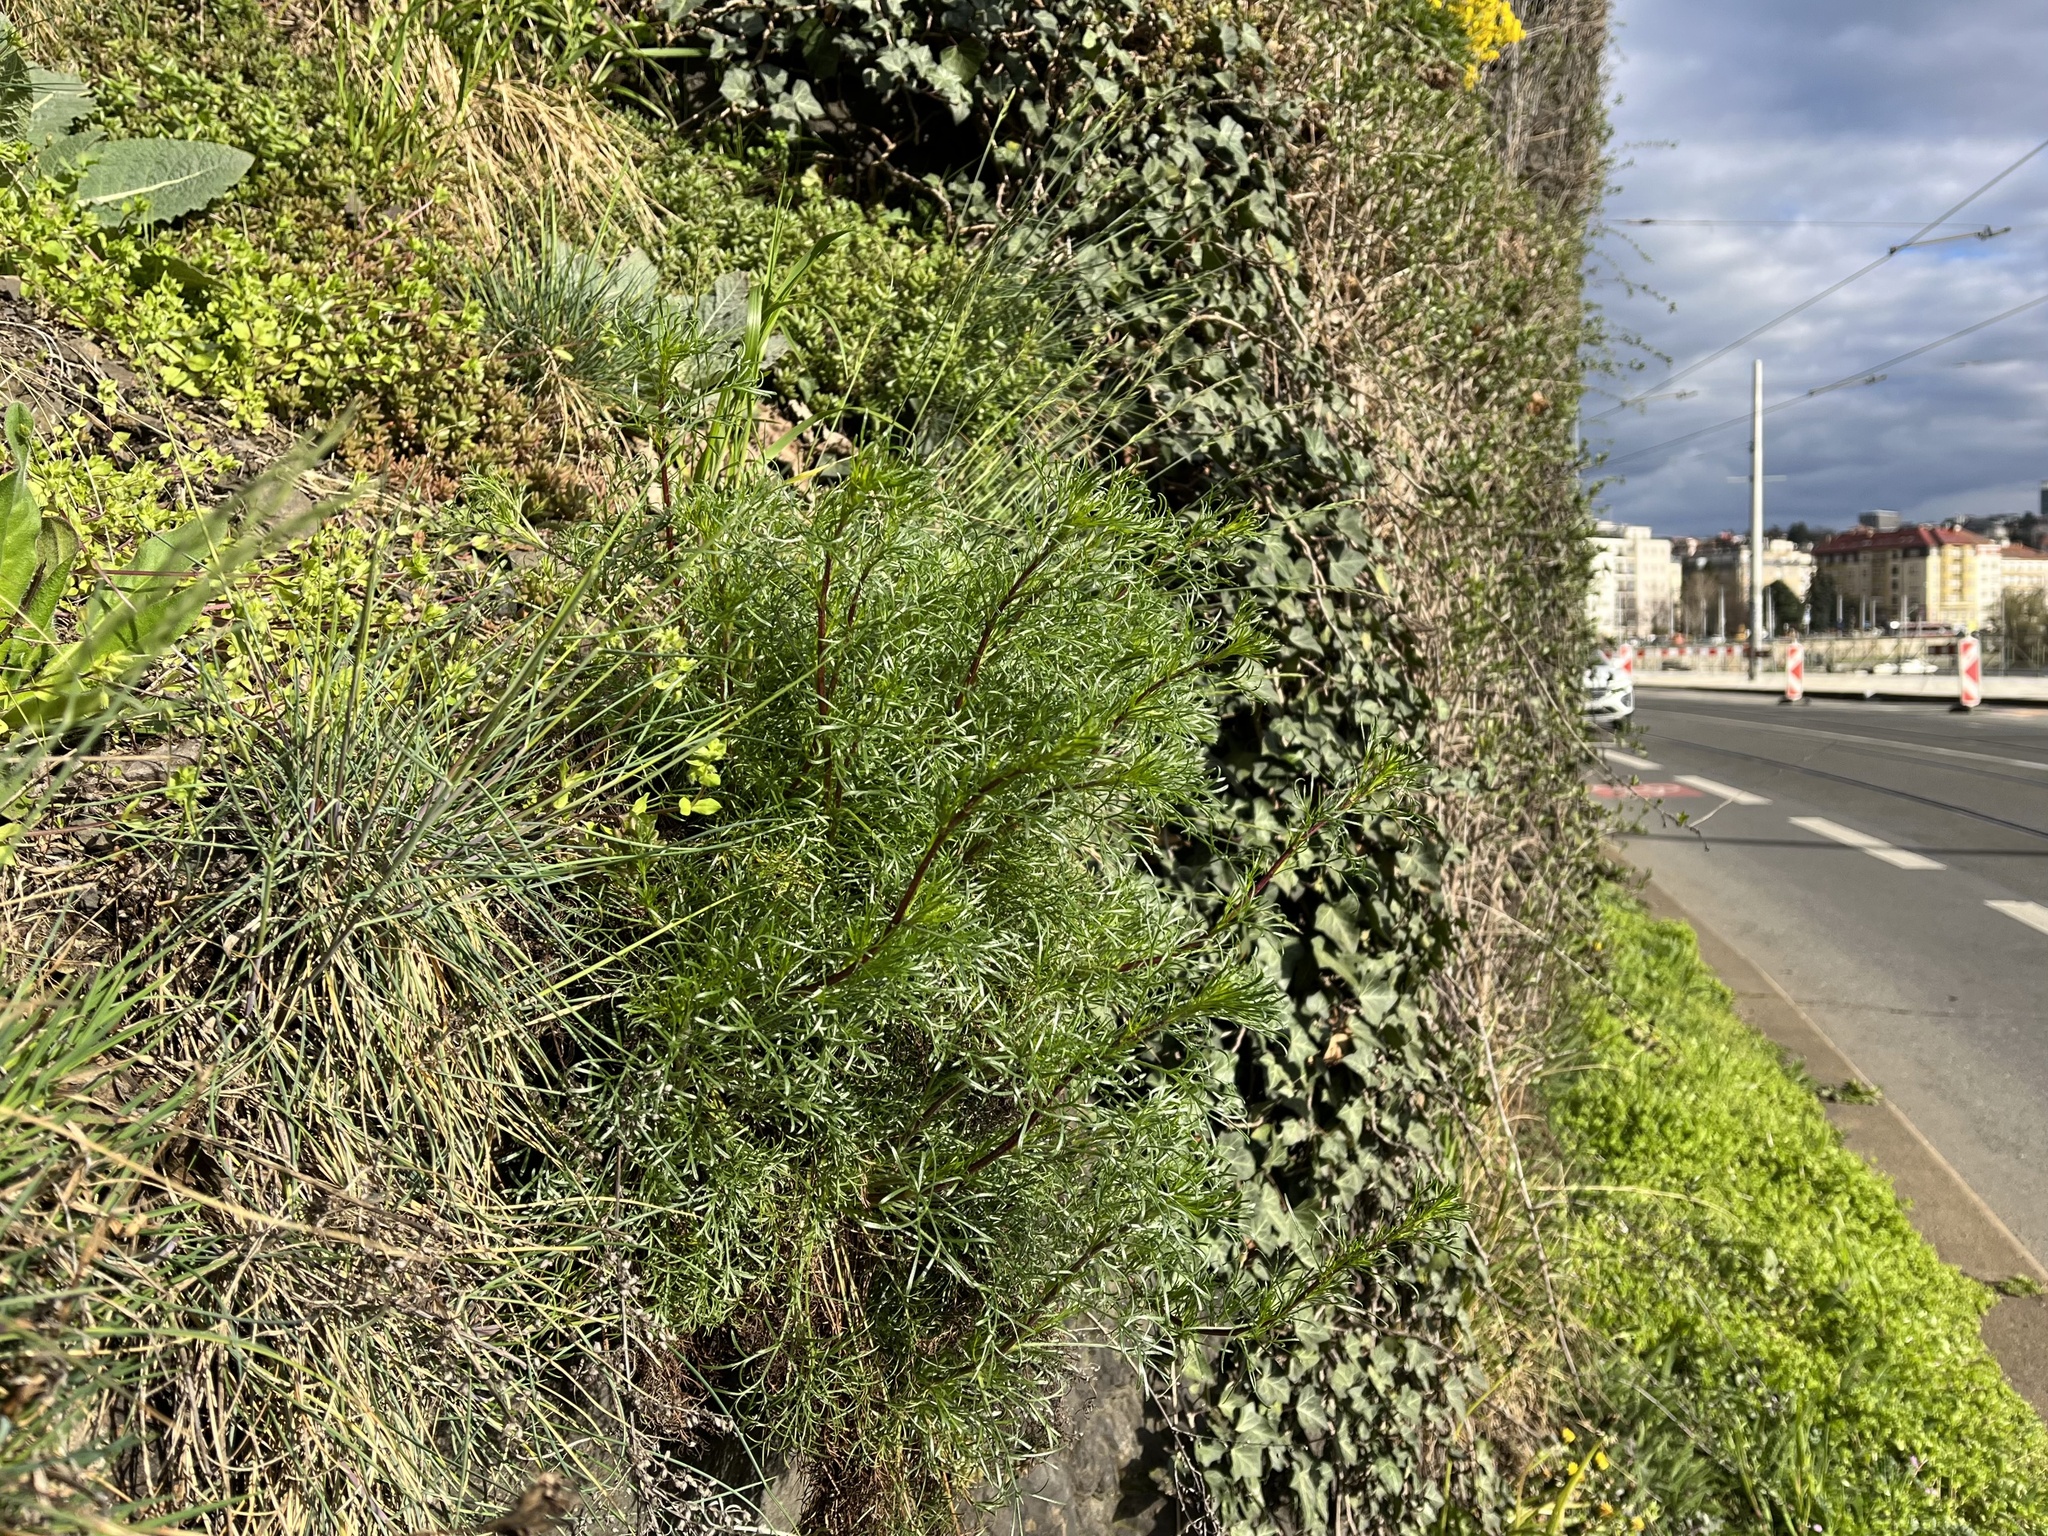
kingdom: Plantae
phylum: Tracheophyta
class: Magnoliopsida
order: Asterales
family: Asteraceae
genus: Artemisia
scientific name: Artemisia campestris
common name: Field wormwood
